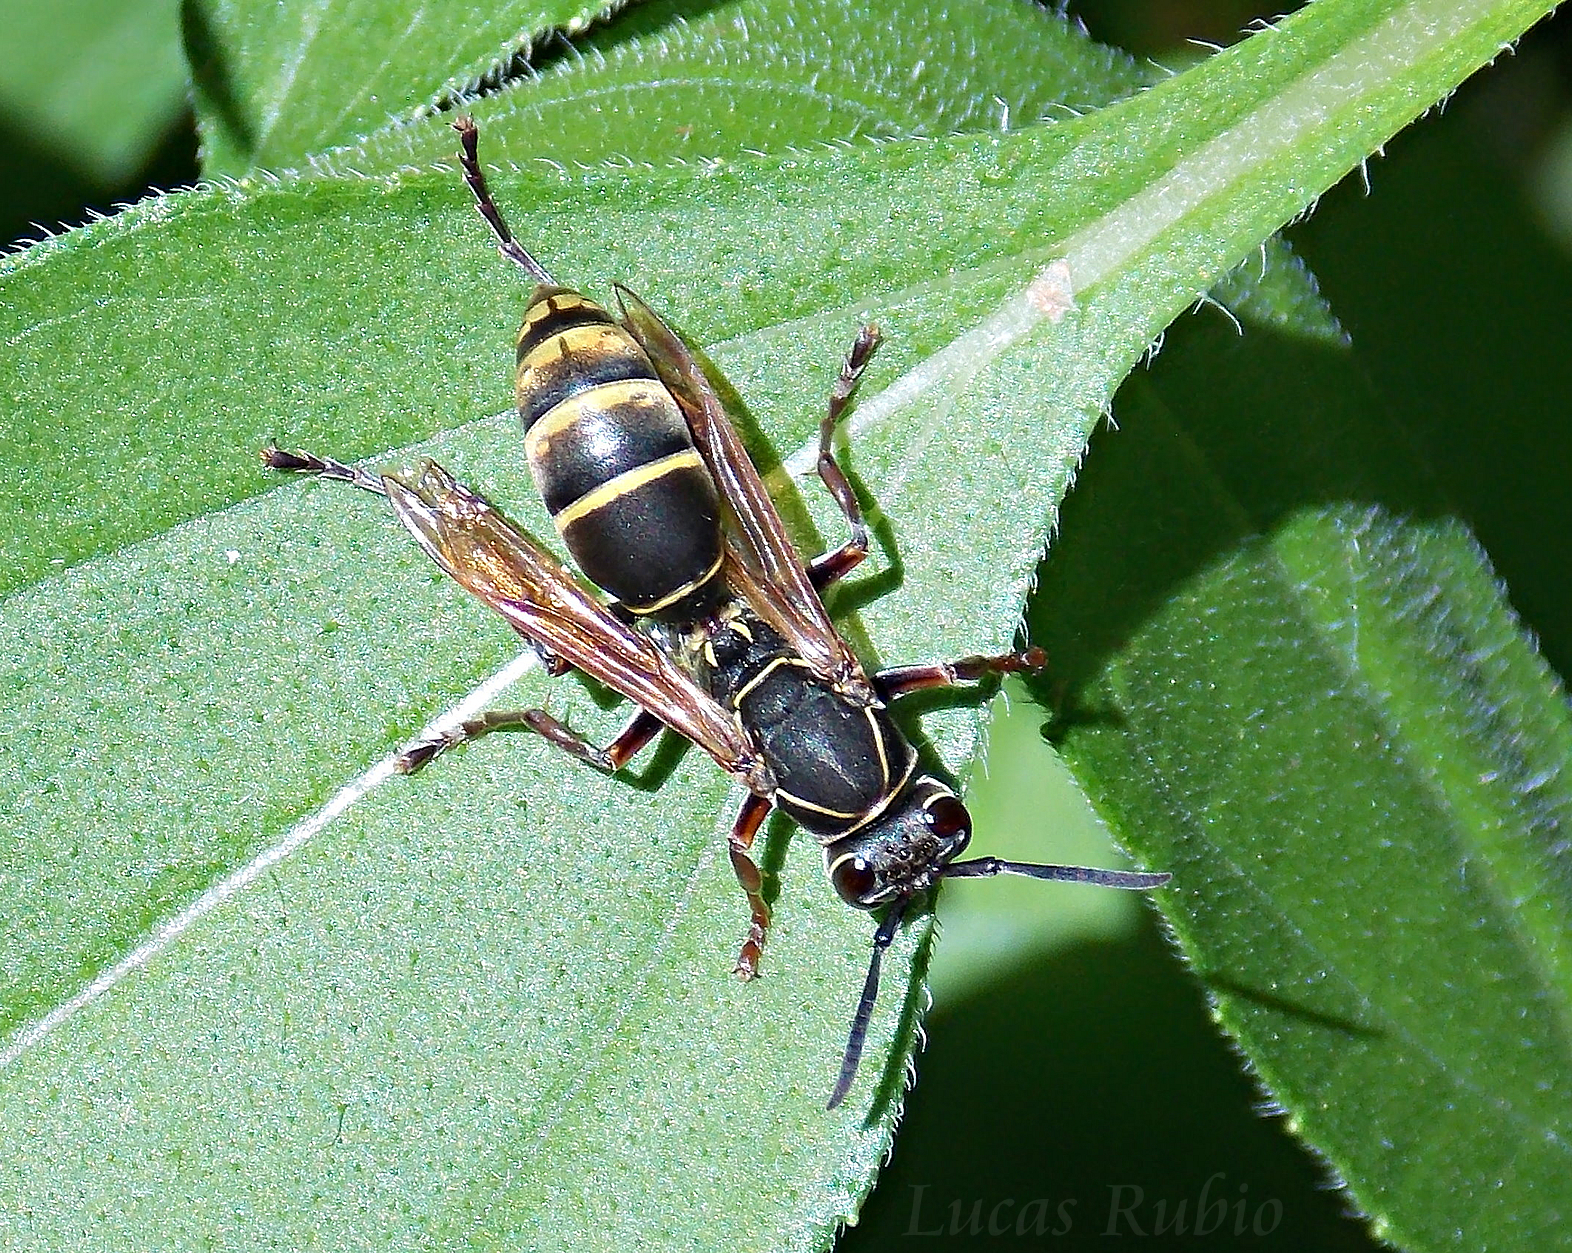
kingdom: Animalia
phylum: Arthropoda
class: Insecta
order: Hymenoptera
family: Eumenidae
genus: Polistes
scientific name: Polistes cinerascens
